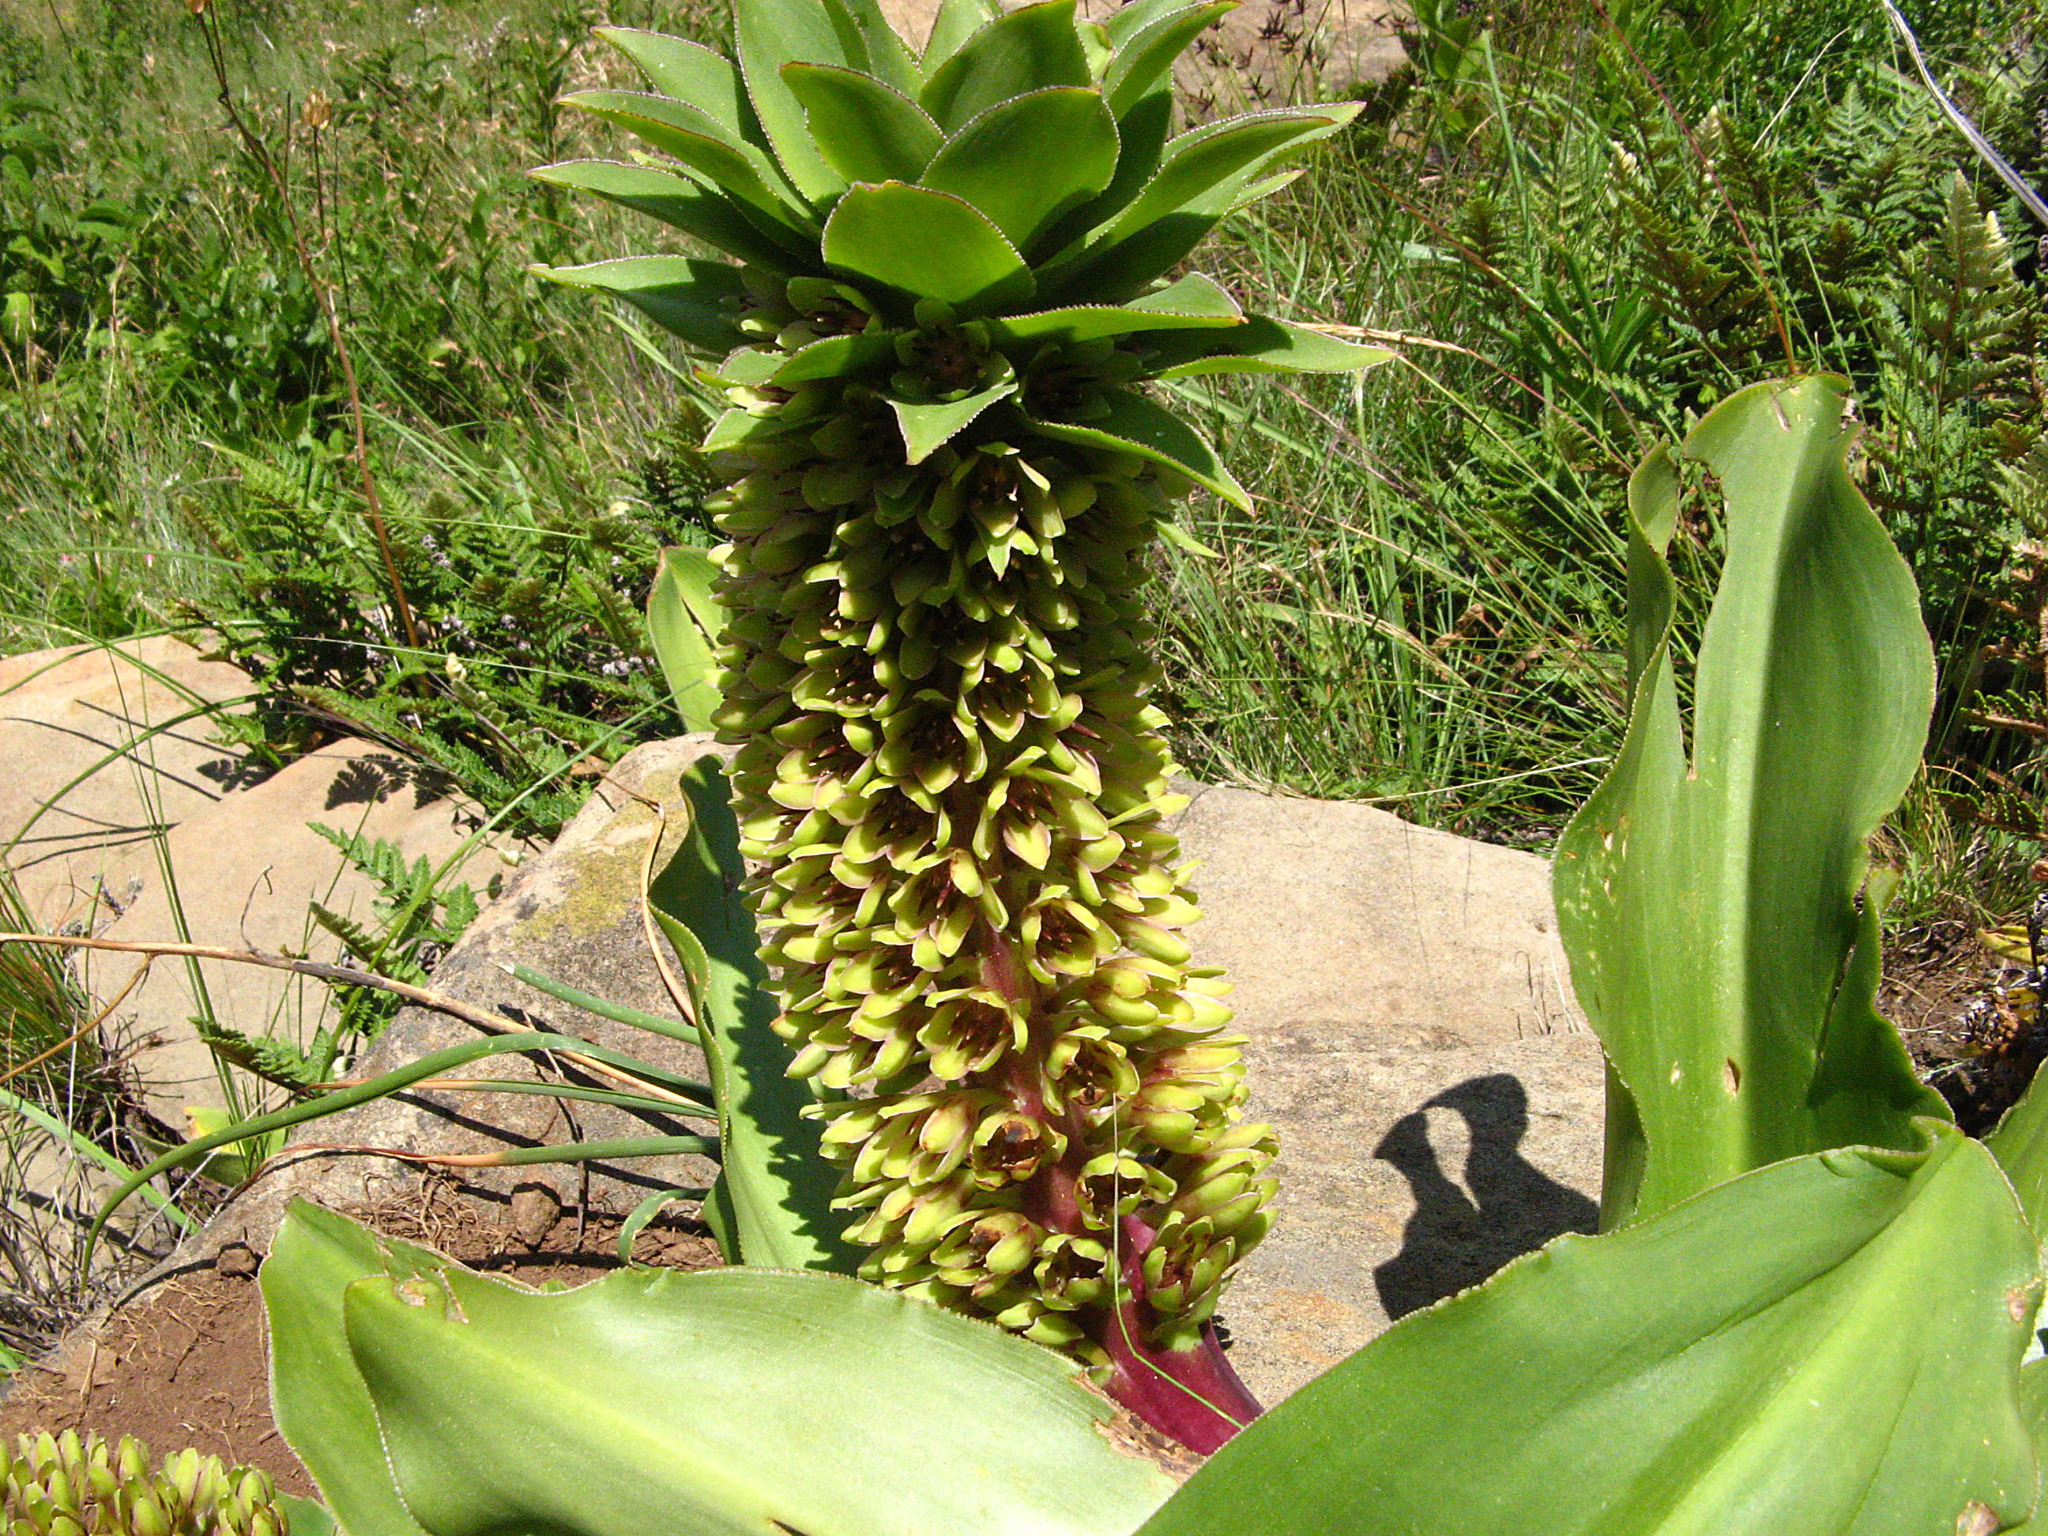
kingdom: Plantae
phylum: Tracheophyta
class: Liliopsida
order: Asparagales
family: Asparagaceae
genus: Eucomis
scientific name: Eucomis humilis
